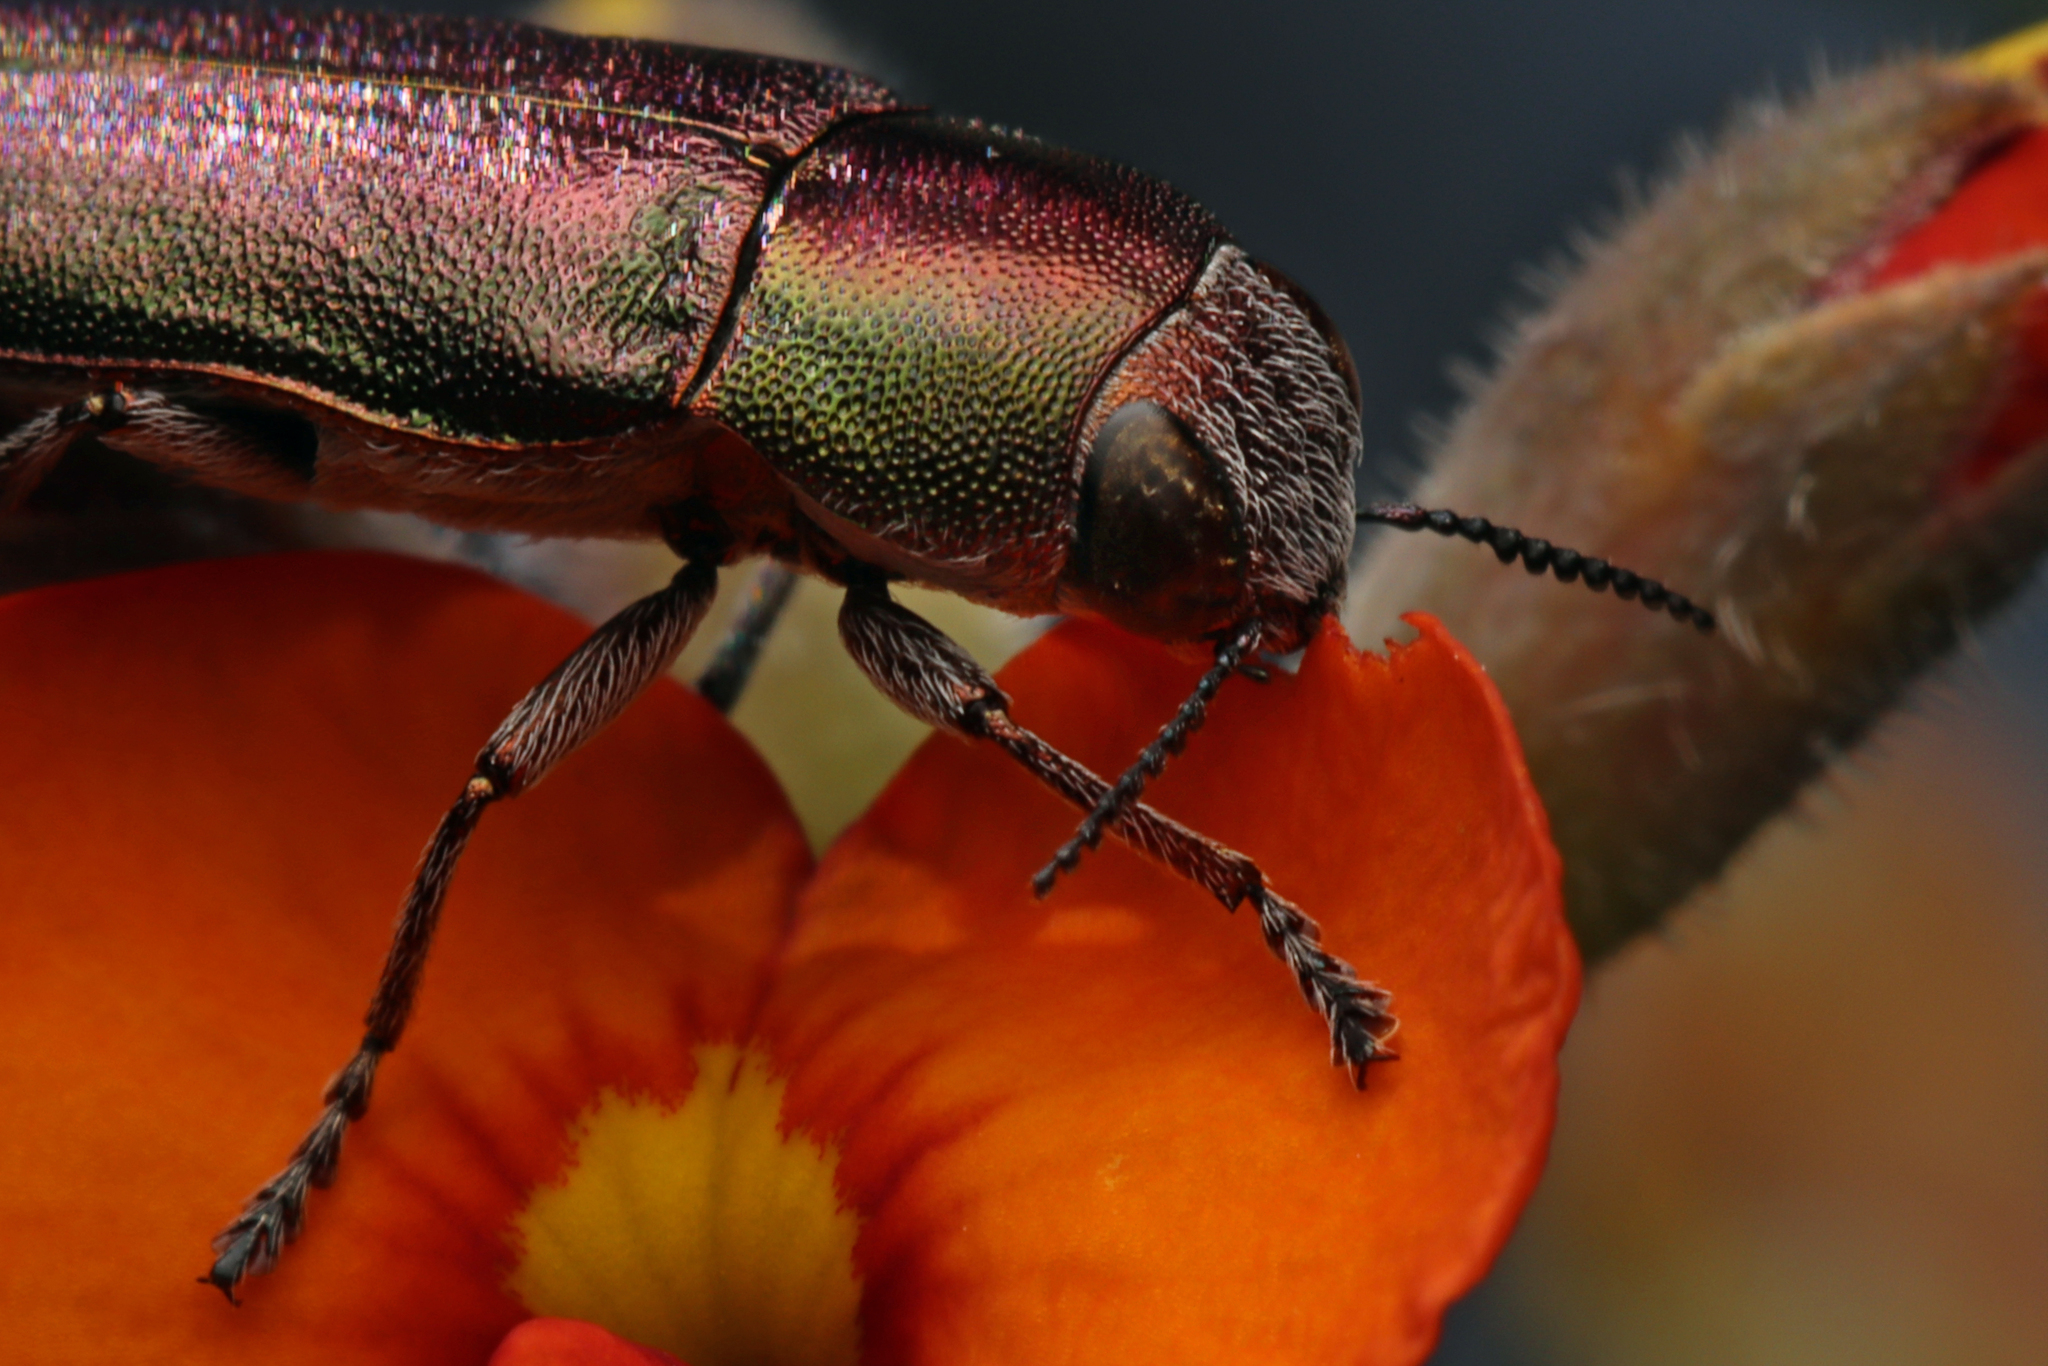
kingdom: Animalia
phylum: Arthropoda
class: Insecta
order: Coleoptera
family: Buprestidae
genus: Melobasis
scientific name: Melobasis propinqua
